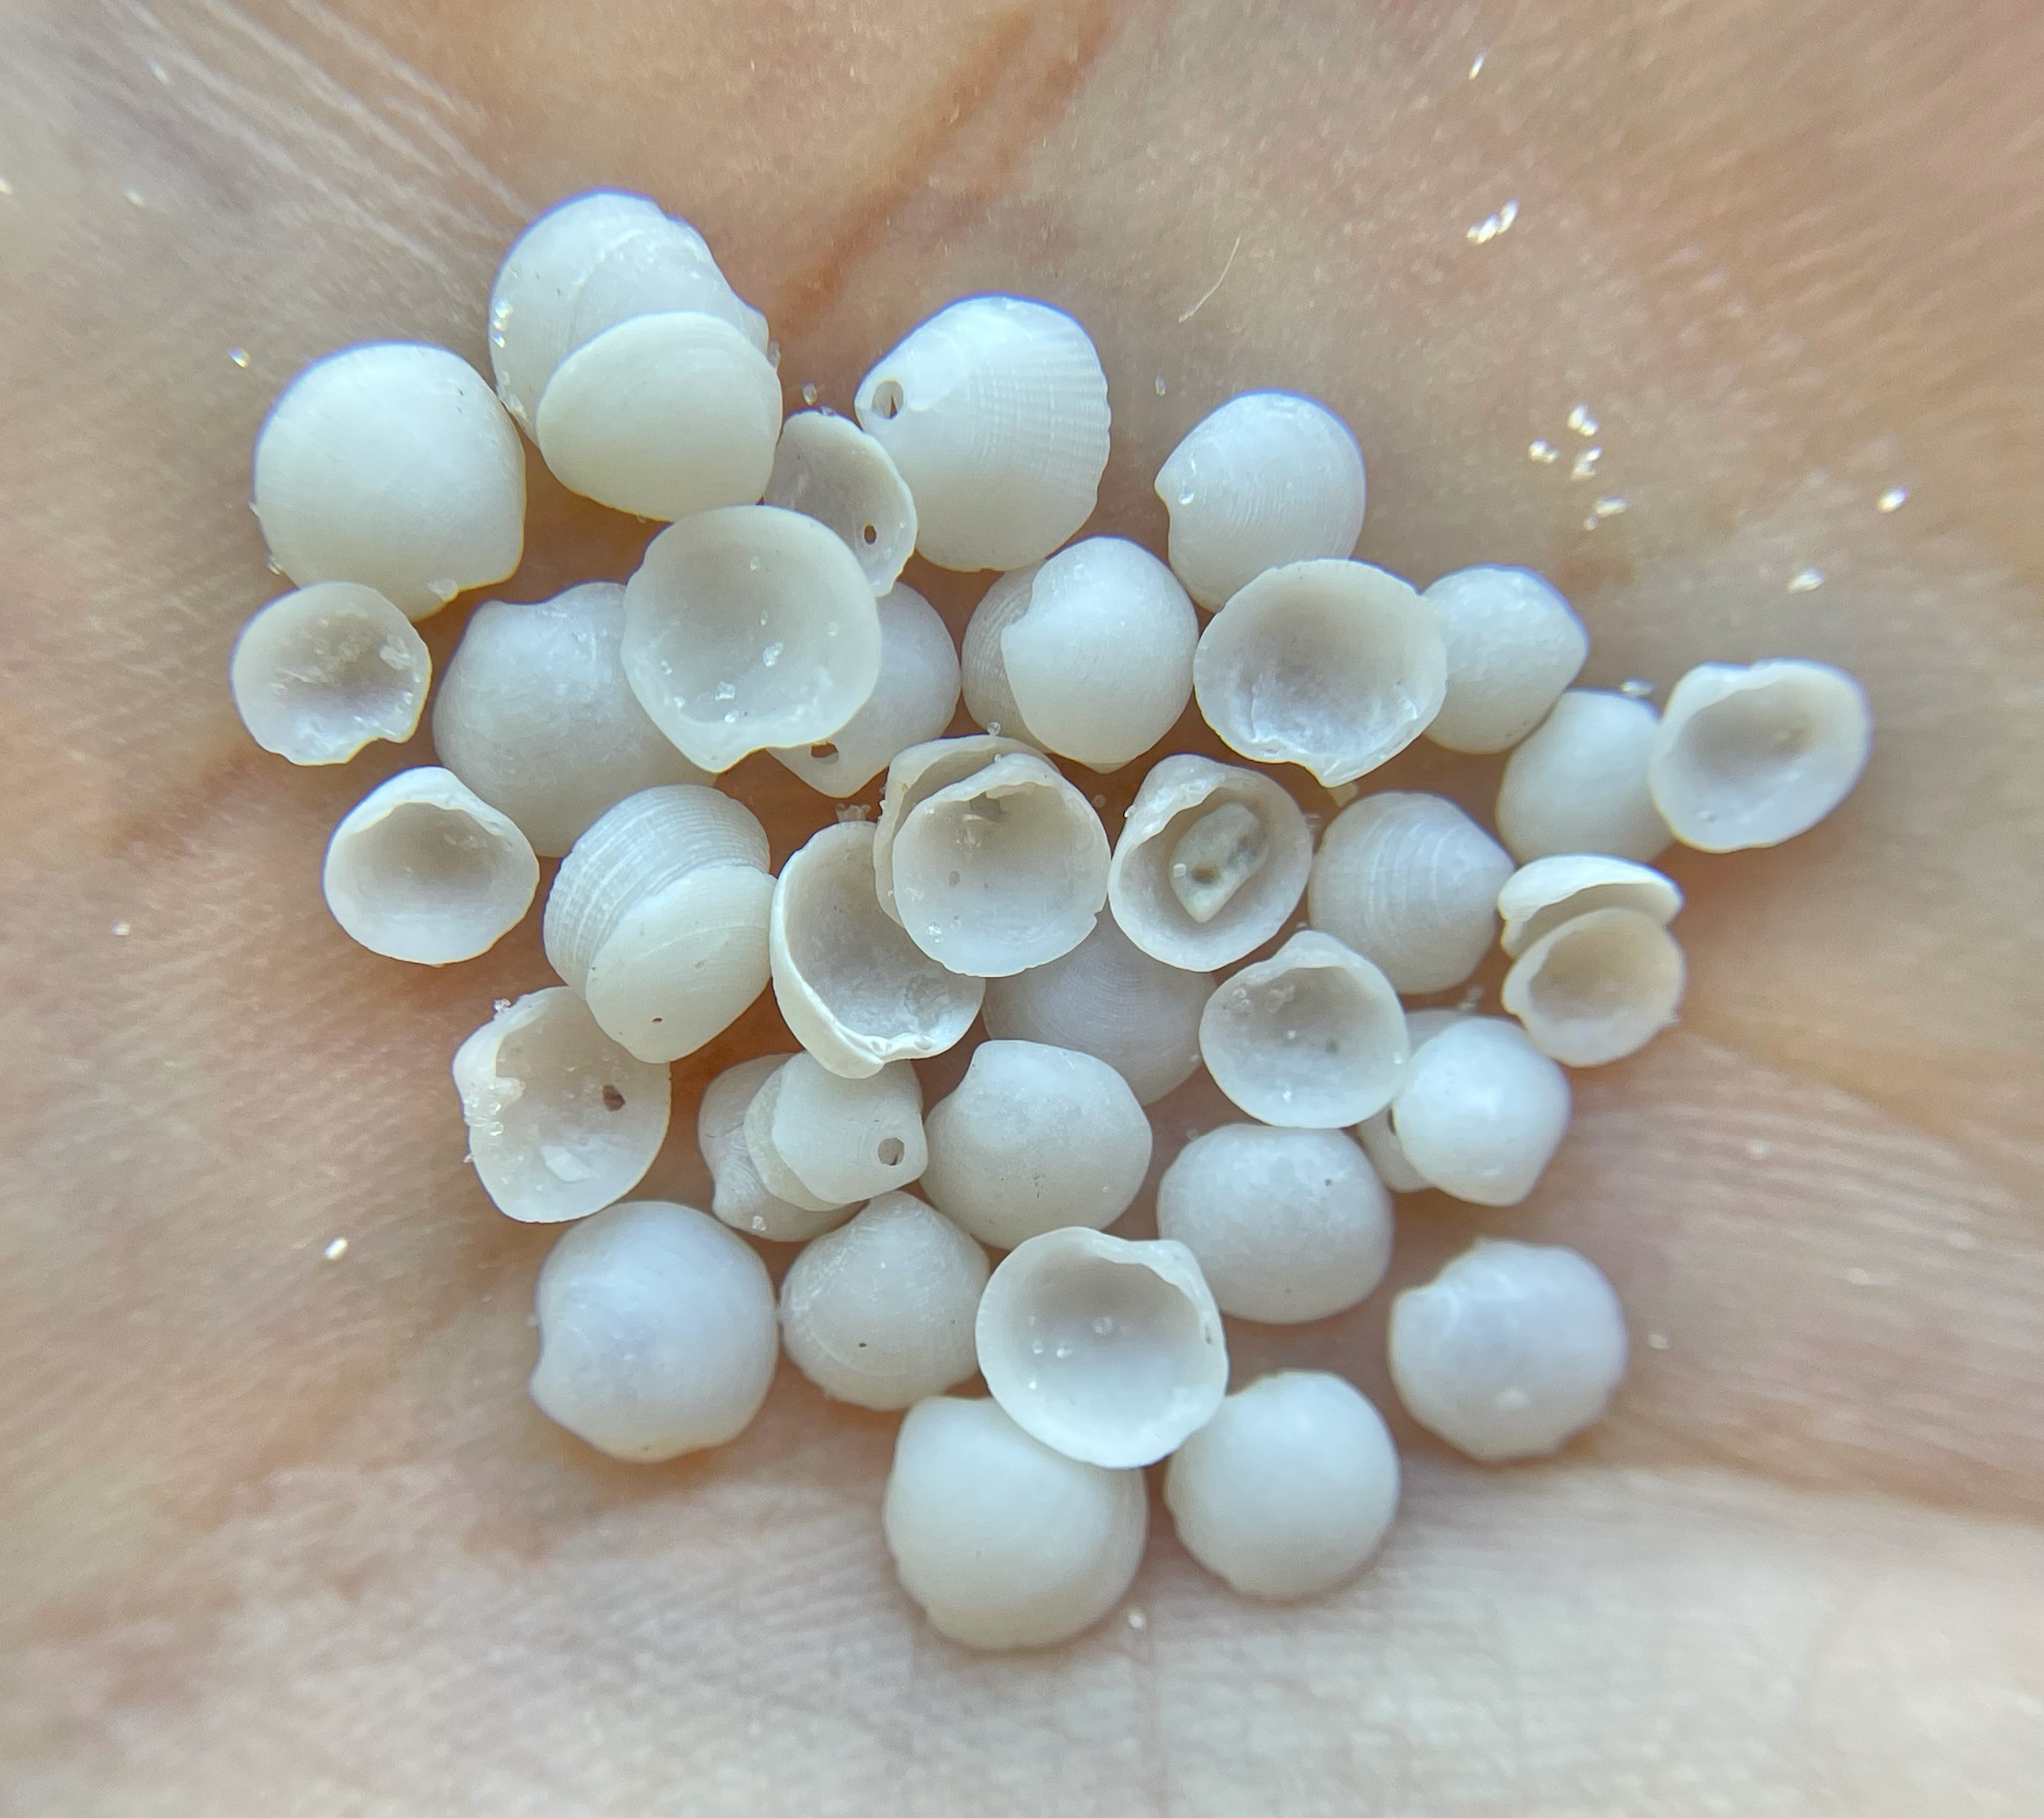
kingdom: Animalia
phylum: Mollusca
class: Bivalvia
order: Lucinida
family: Lucinidae
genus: Parvilucina
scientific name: Parvilucina crenella
